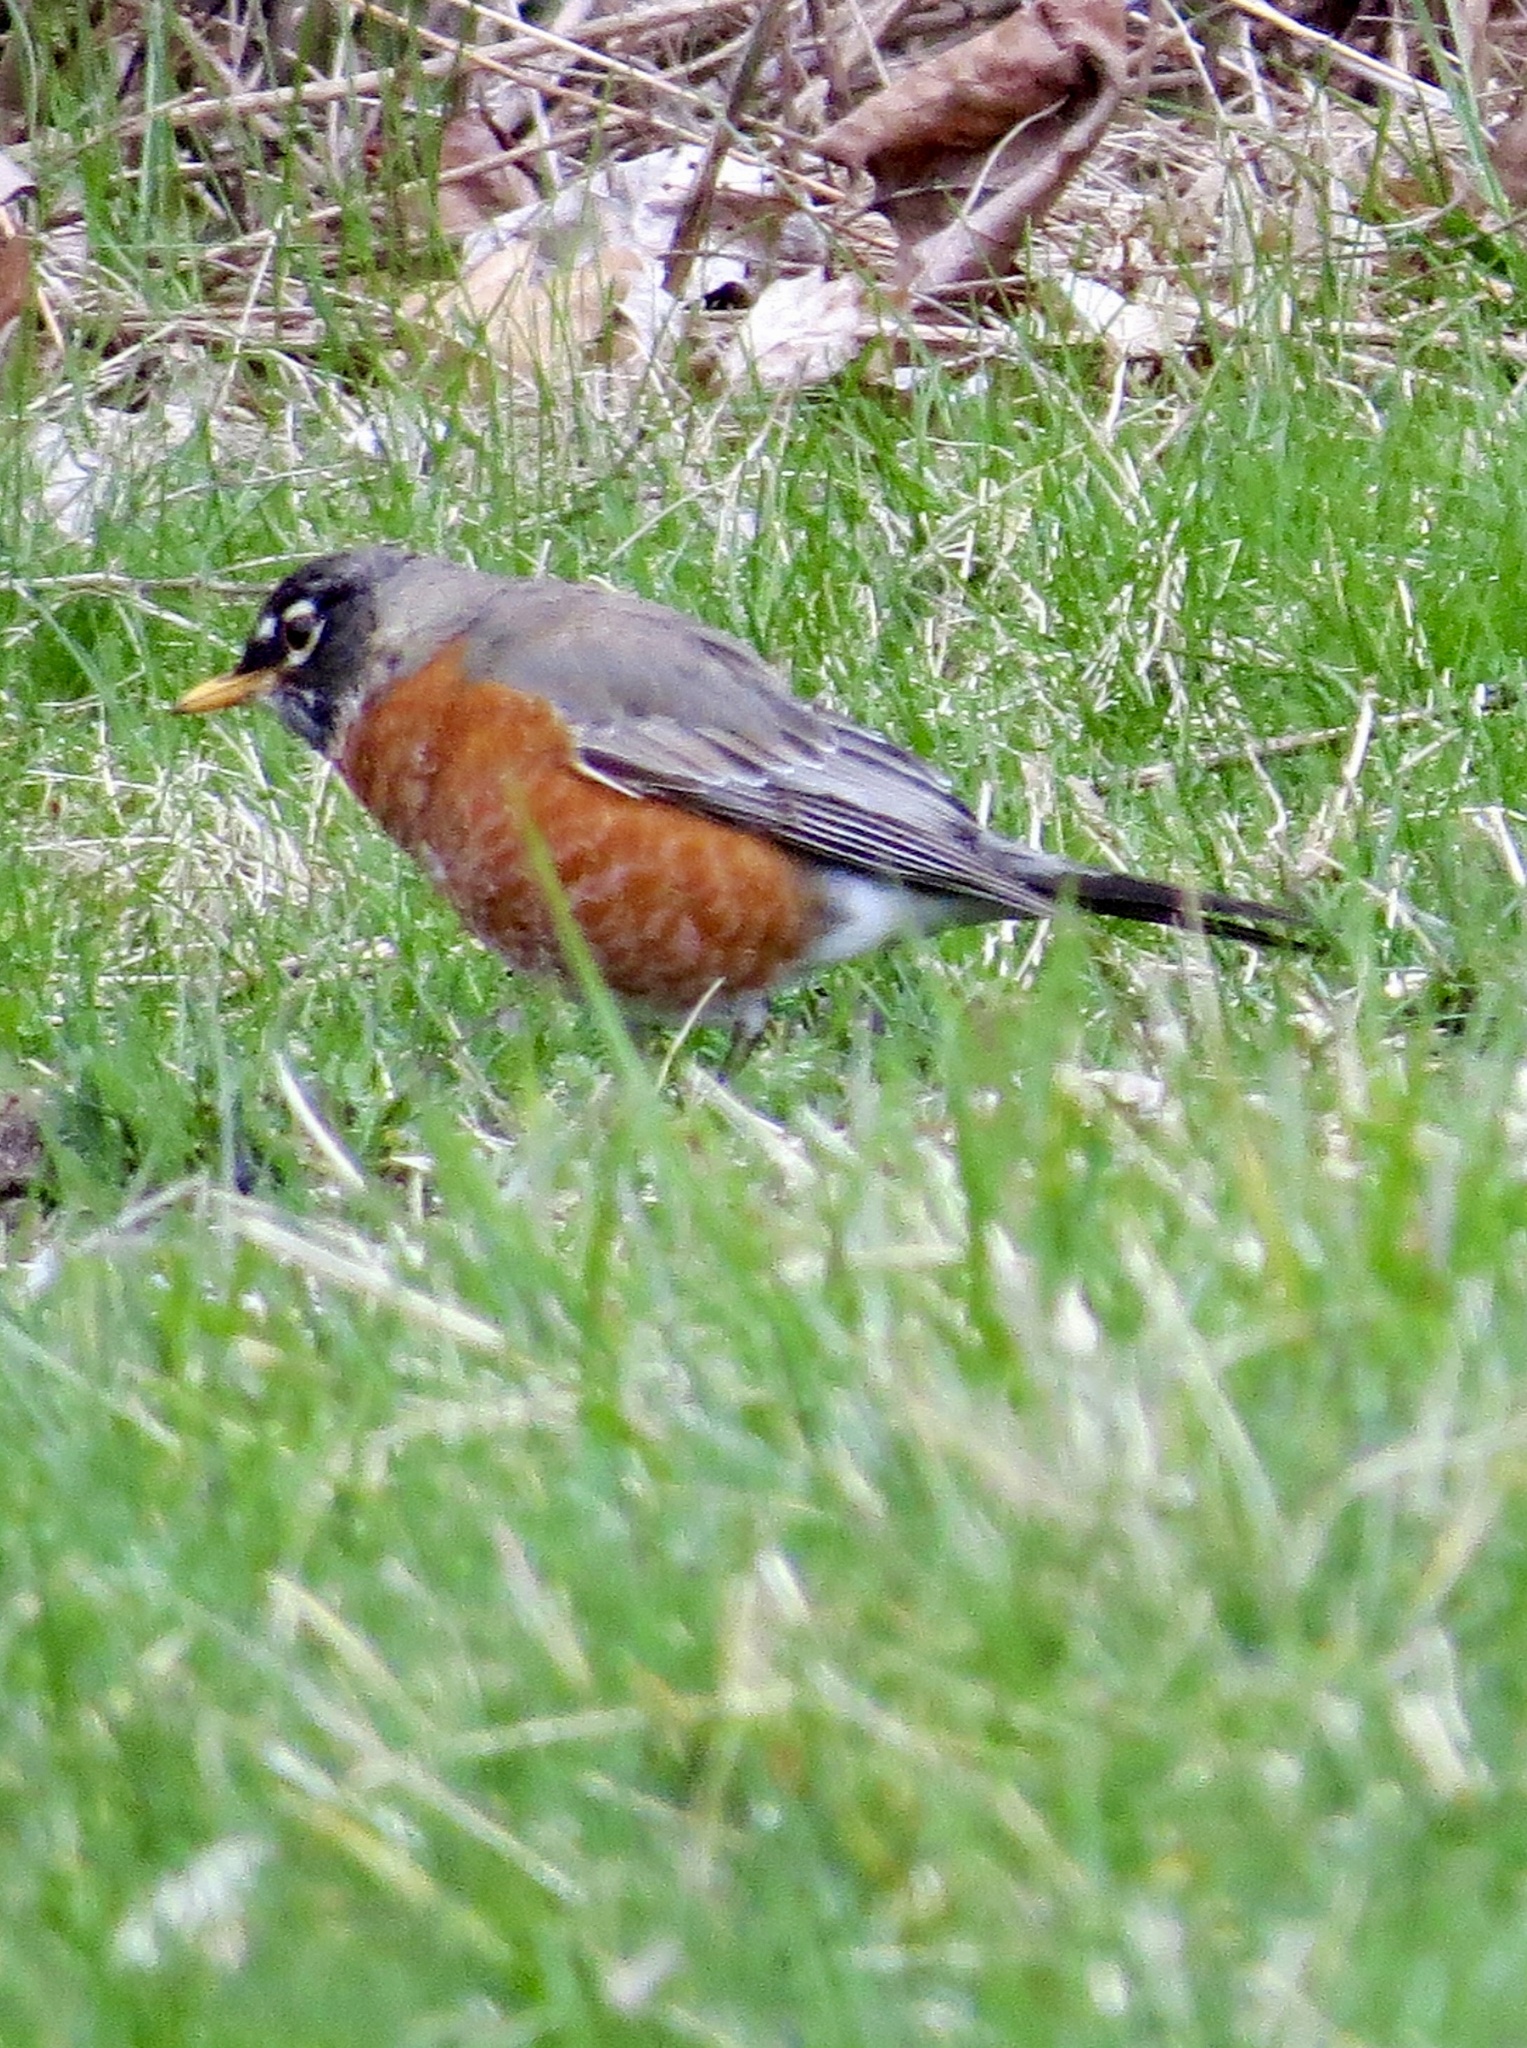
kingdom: Animalia
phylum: Chordata
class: Aves
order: Passeriformes
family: Turdidae
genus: Turdus
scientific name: Turdus migratorius
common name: American robin
